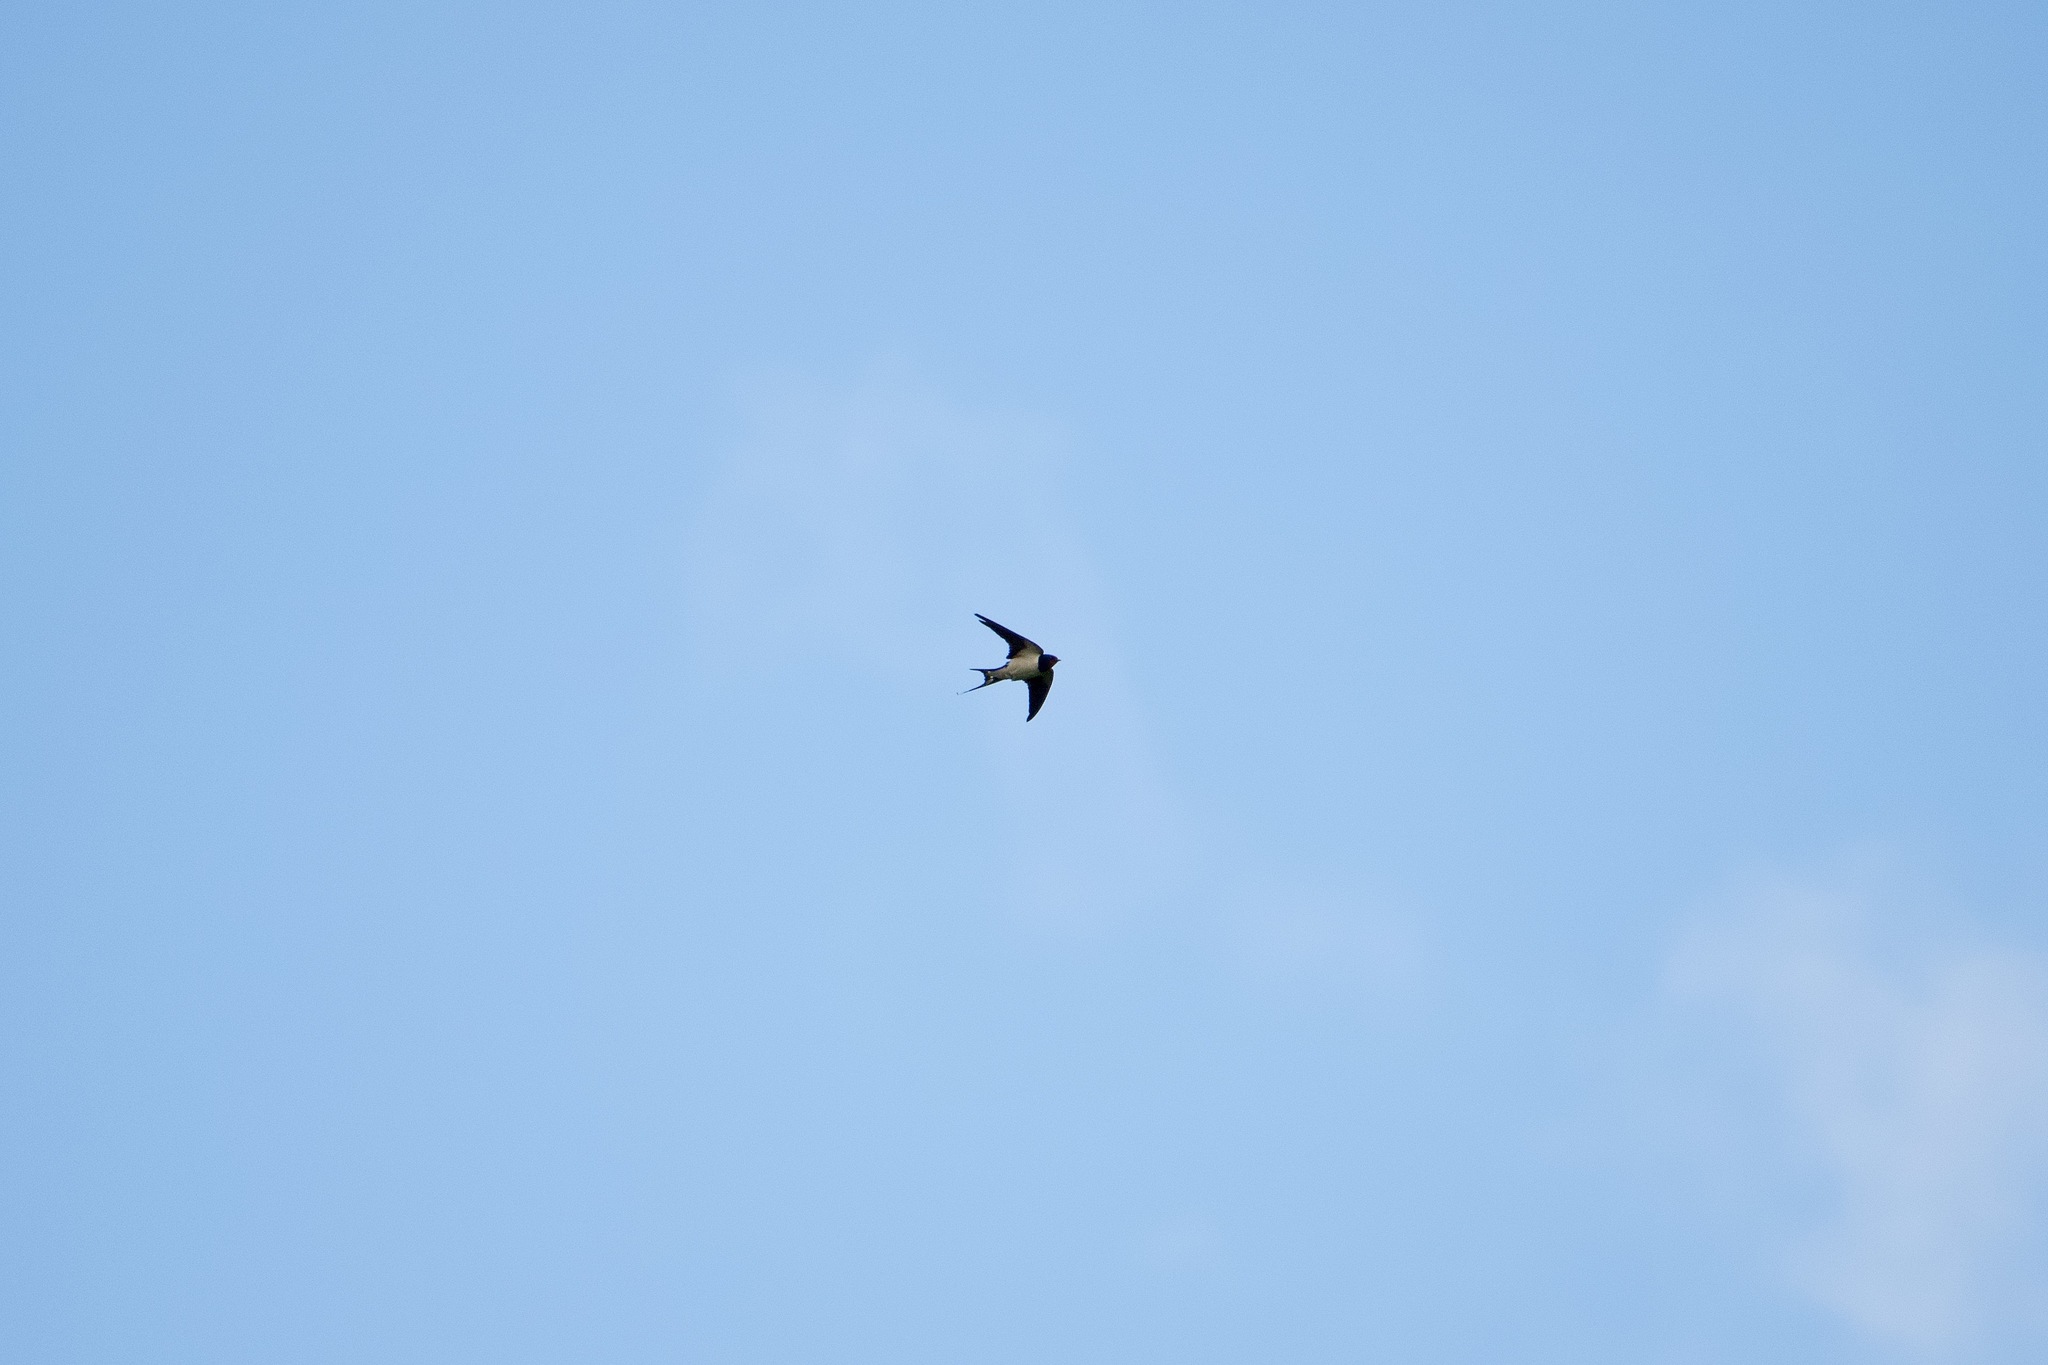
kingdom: Animalia
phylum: Chordata
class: Aves
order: Passeriformes
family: Hirundinidae
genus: Hirundo
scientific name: Hirundo rustica
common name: Barn swallow
